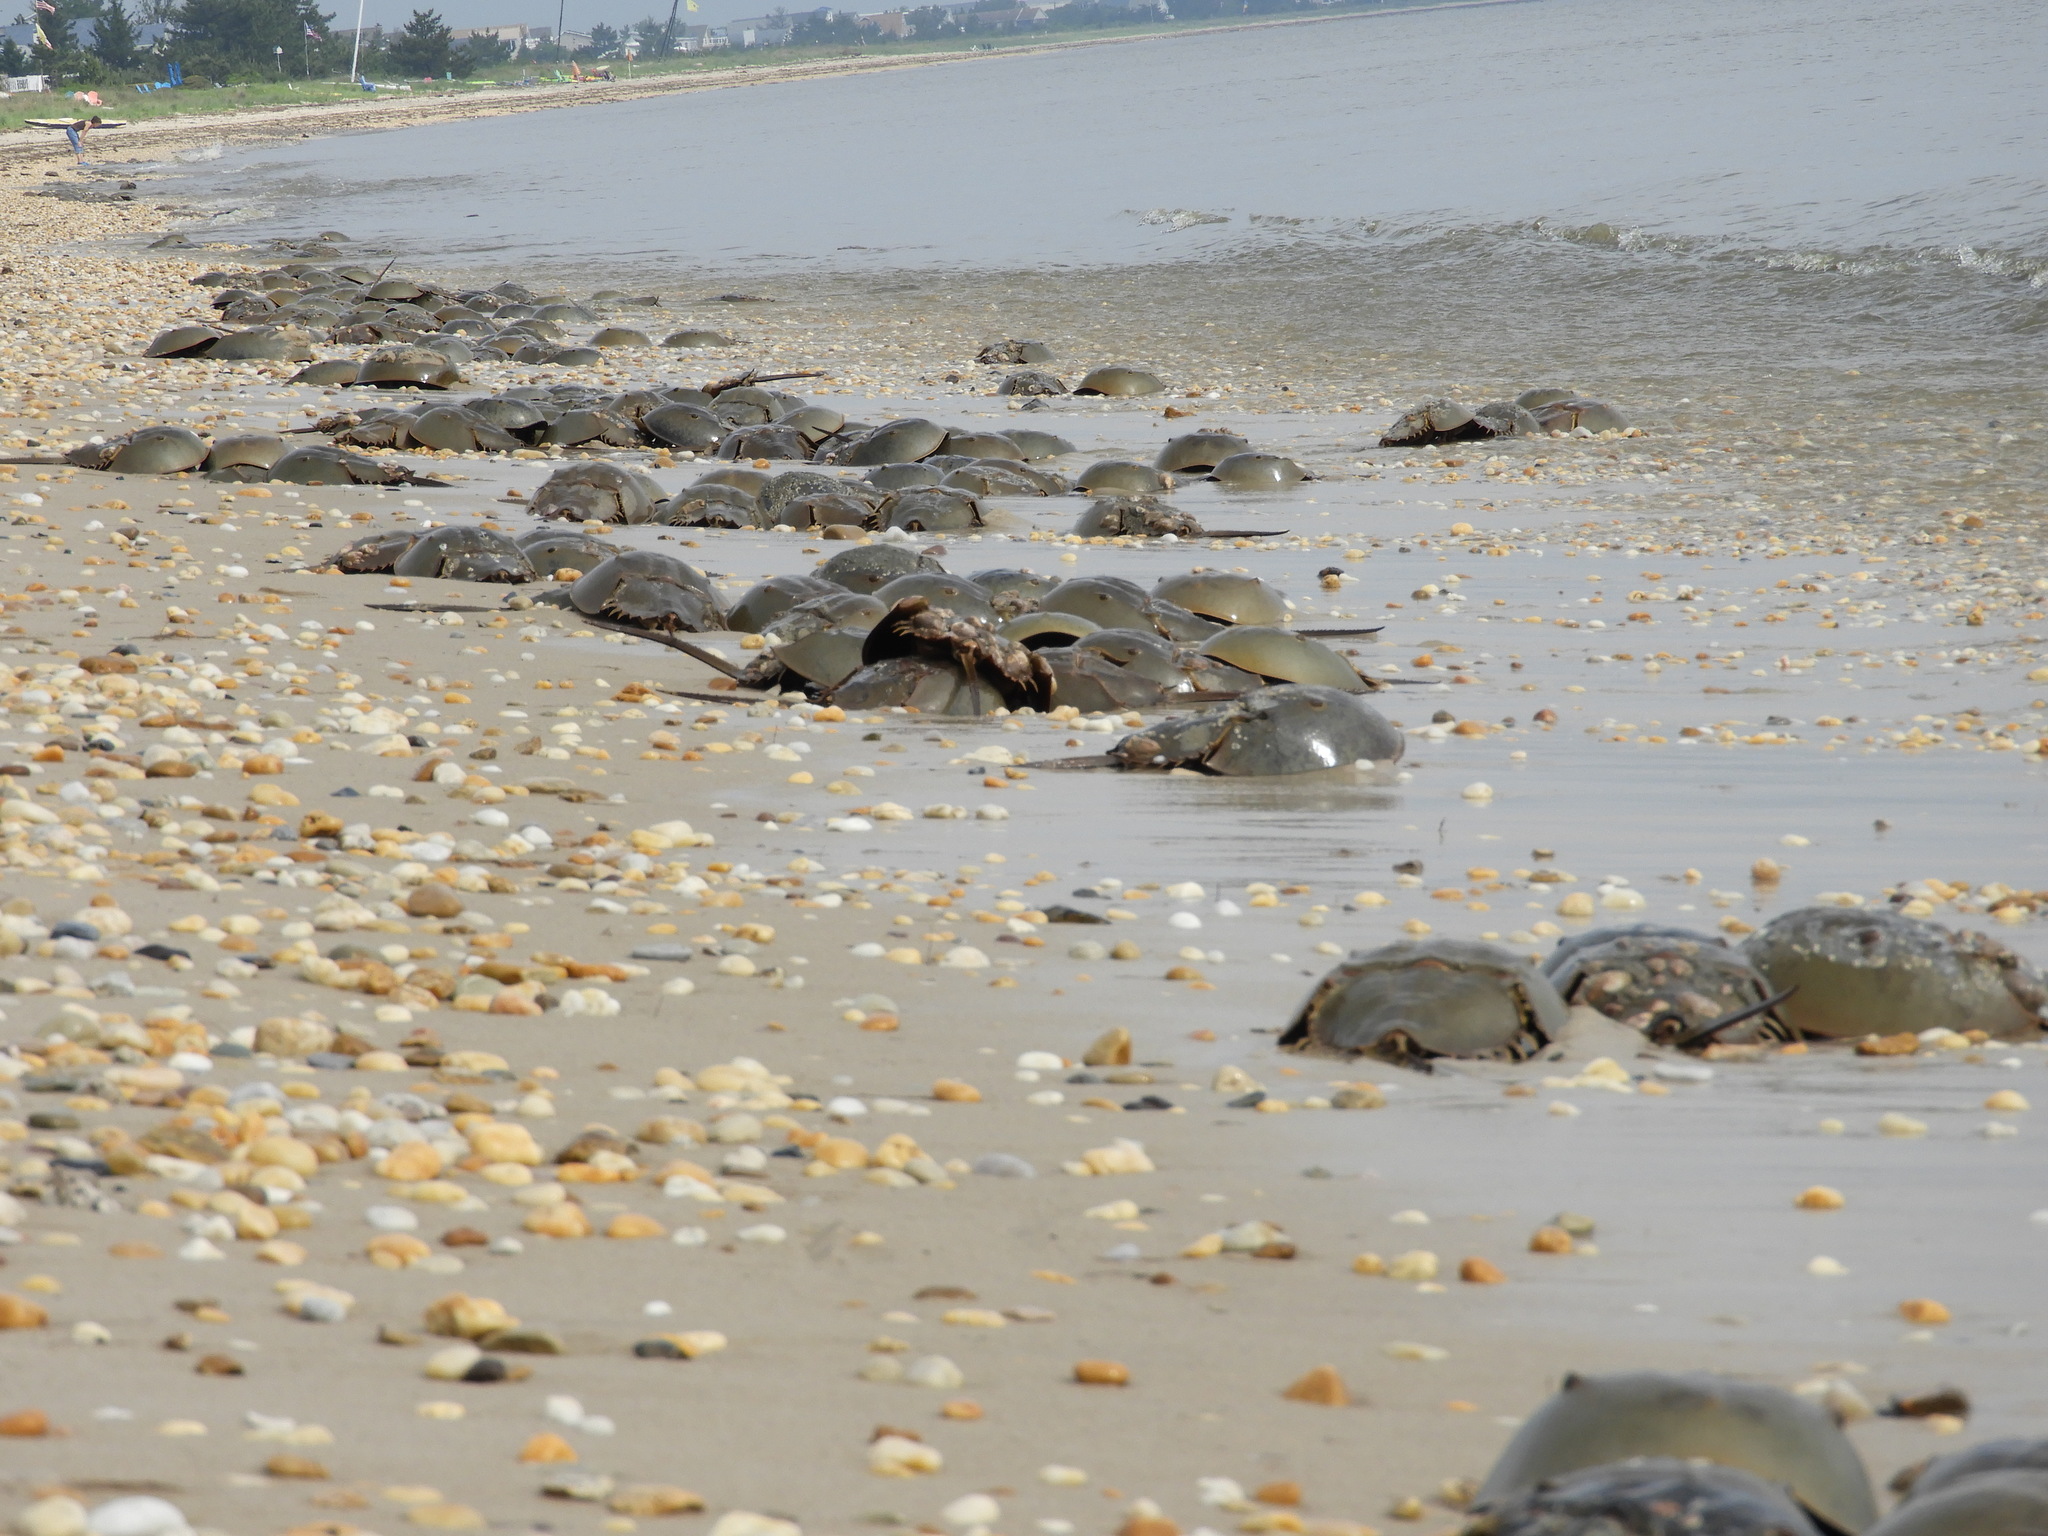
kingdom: Animalia
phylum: Arthropoda
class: Merostomata
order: Xiphosurida
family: Limulidae
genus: Limulus
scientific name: Limulus polyphemus
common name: Horseshoe crab
